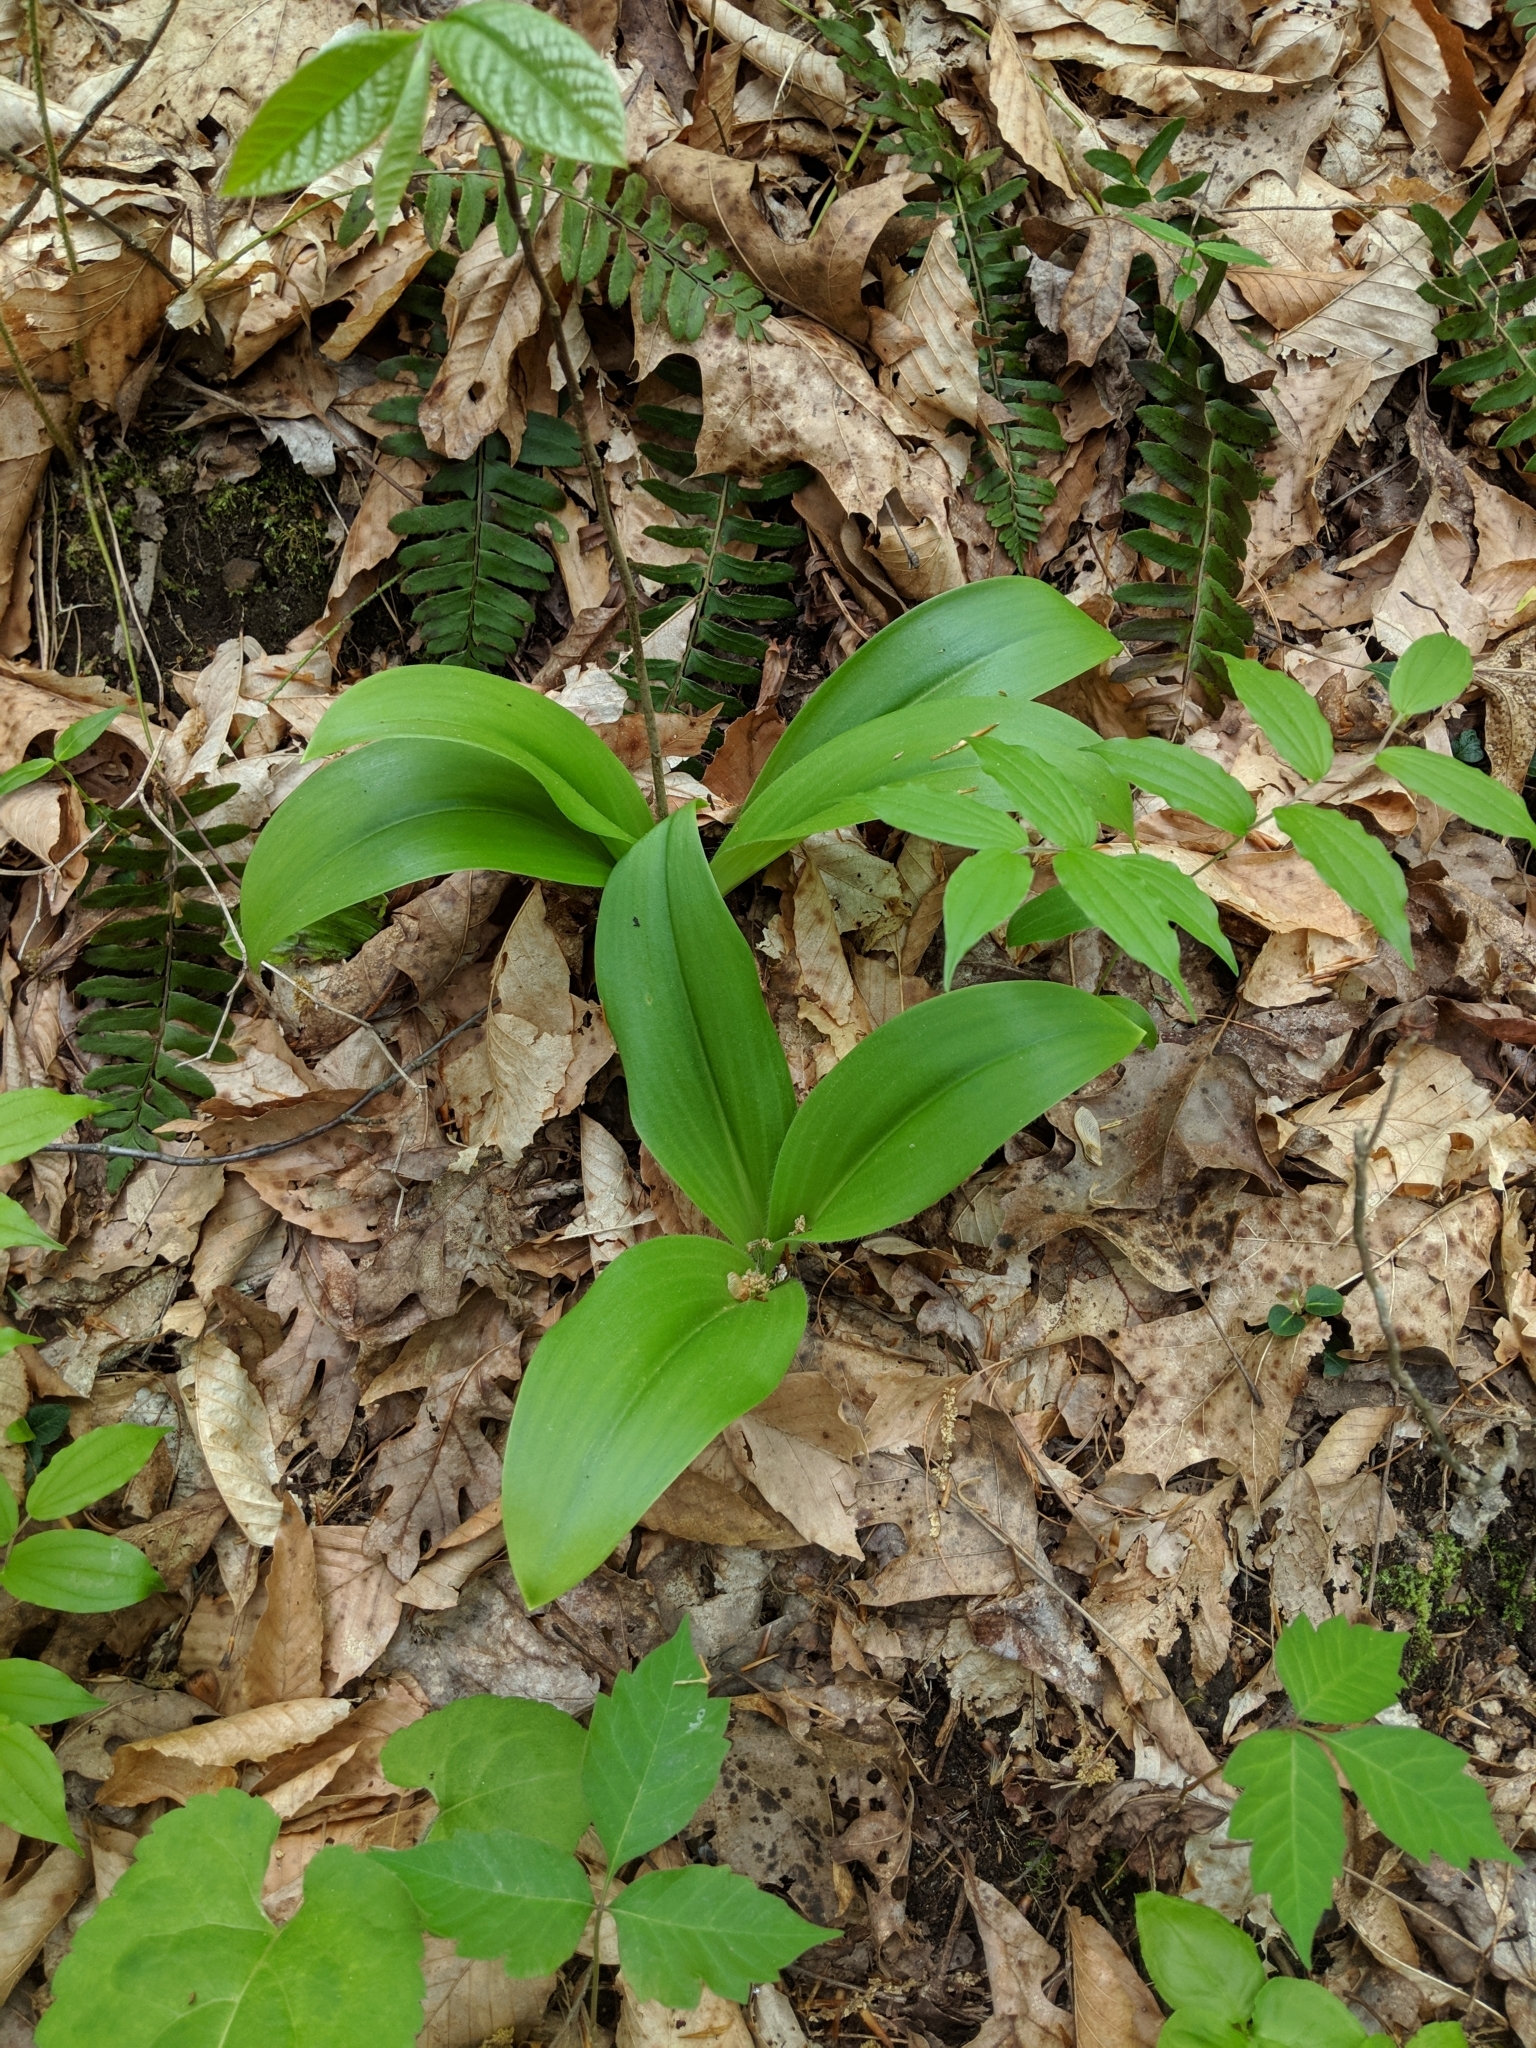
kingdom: Plantae
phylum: Tracheophyta
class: Liliopsida
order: Liliales
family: Liliaceae
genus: Clintonia
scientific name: Clintonia umbellulata
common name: Speckle wood-lily
